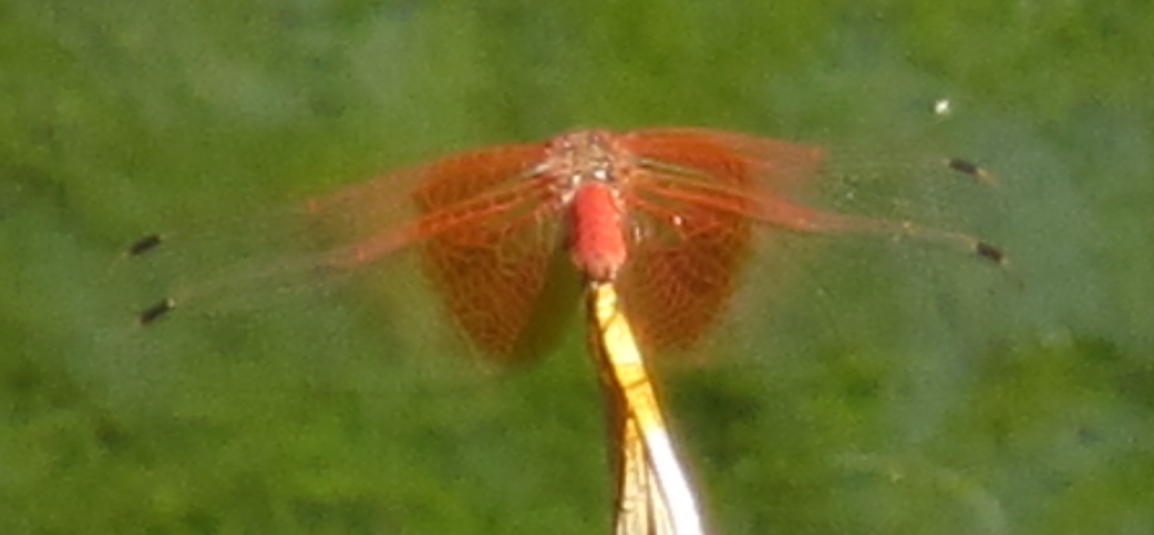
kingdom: Animalia
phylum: Arthropoda
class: Insecta
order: Odonata
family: Libellulidae
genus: Trithemis
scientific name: Trithemis kirbyi
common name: Kirby's dropwing
